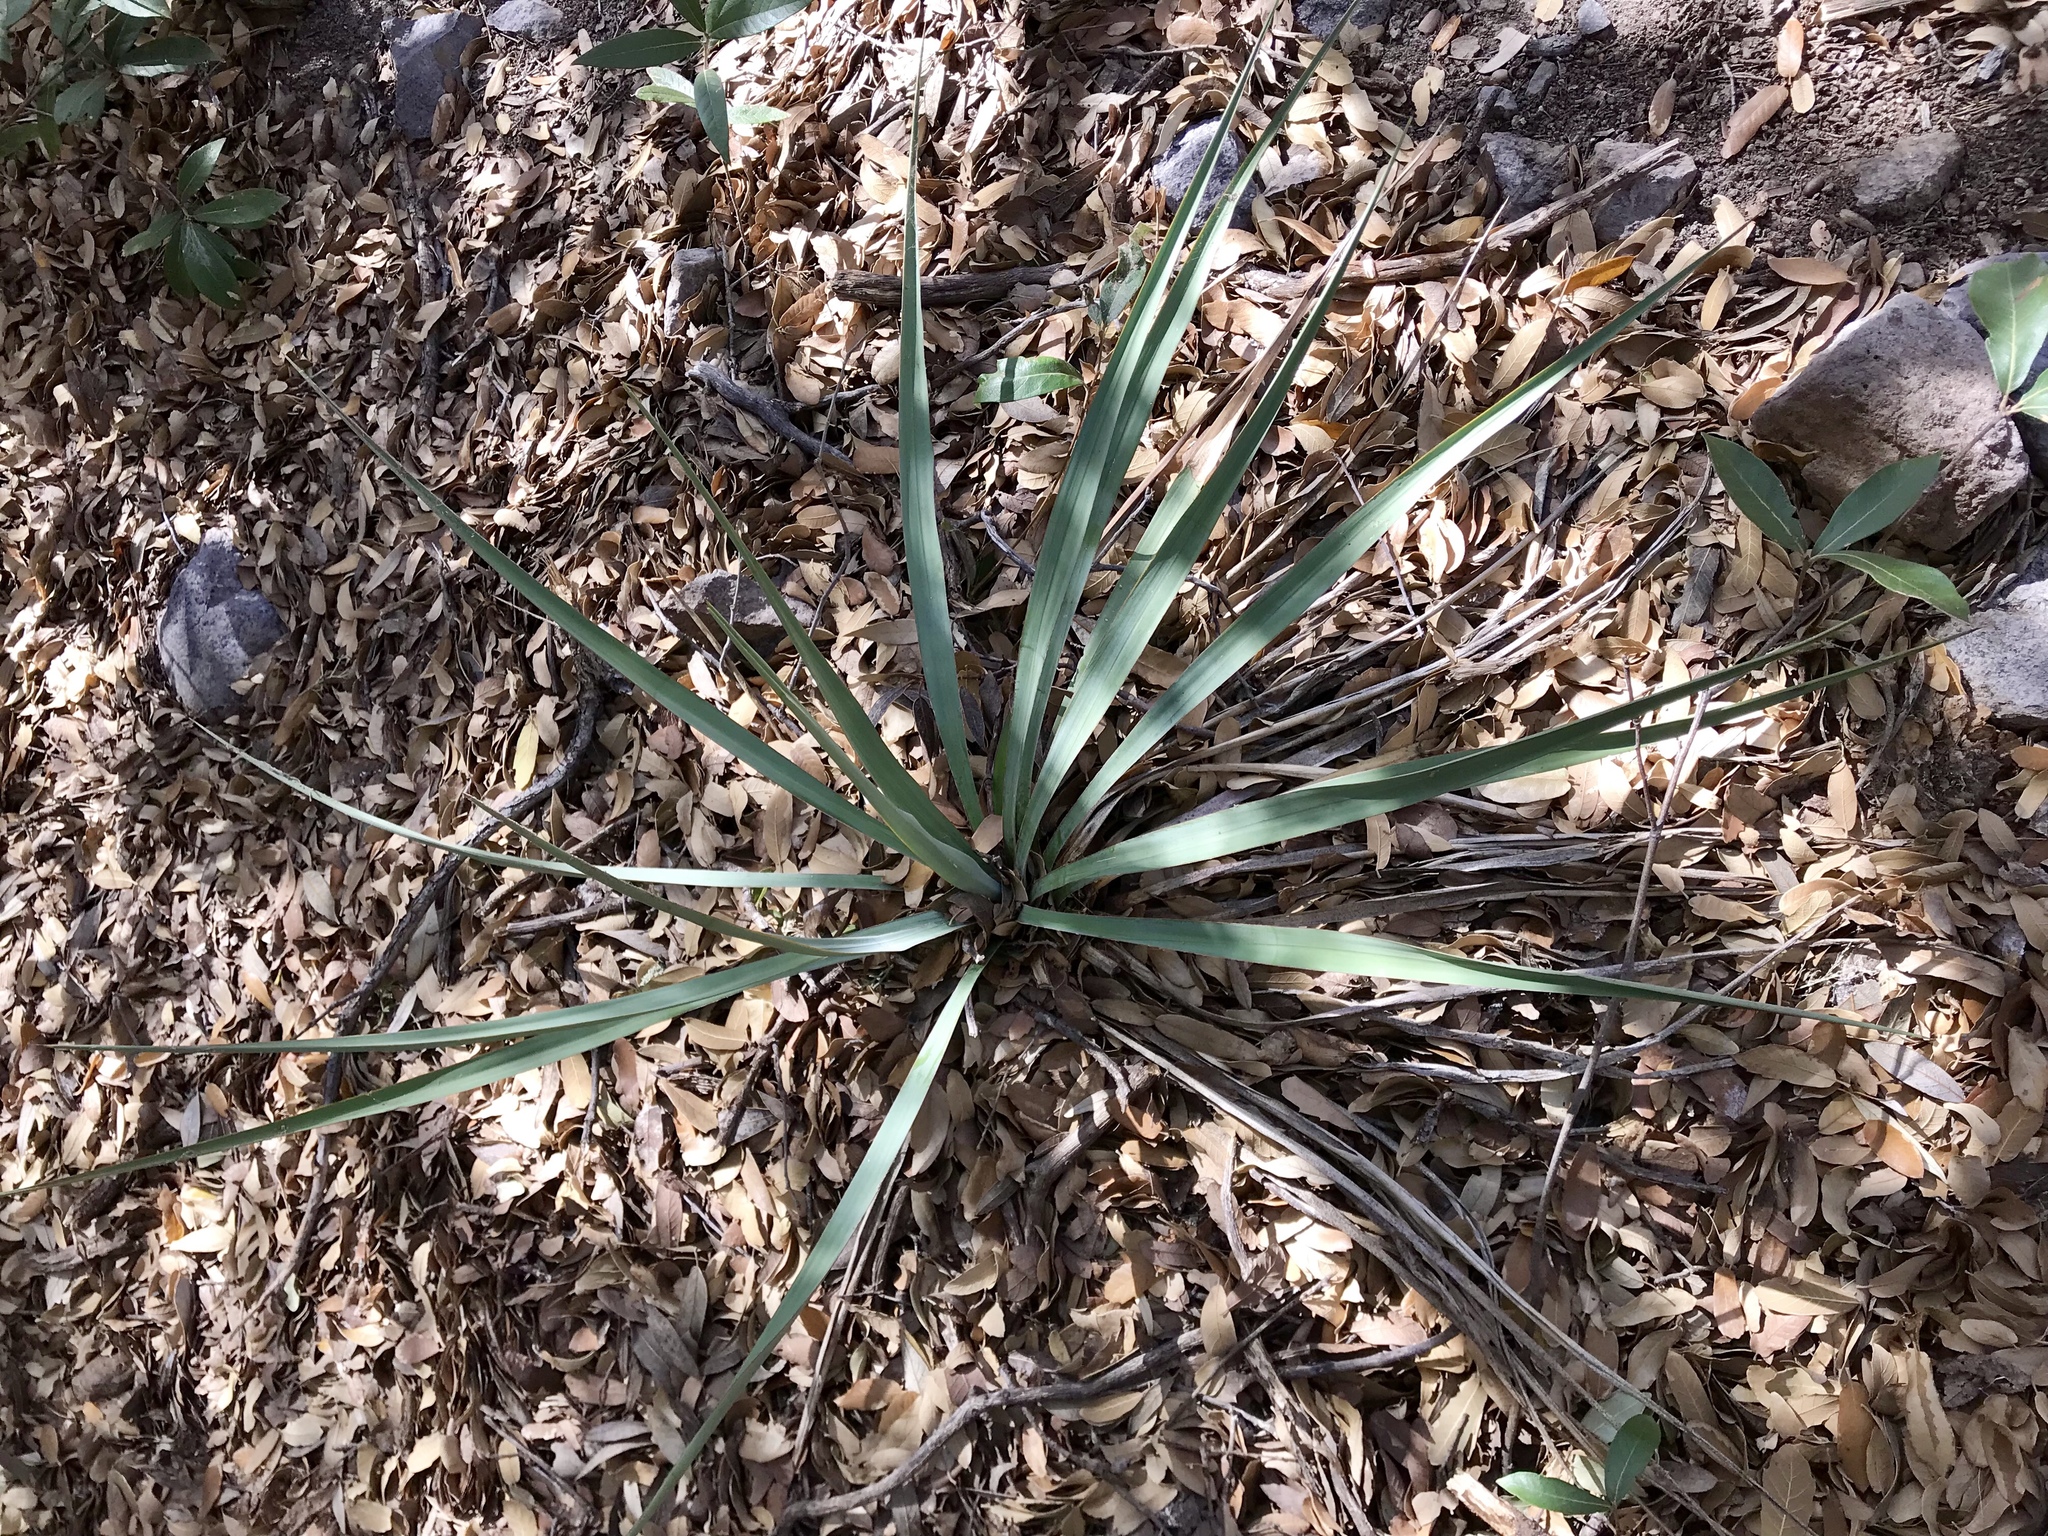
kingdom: Plantae
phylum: Tracheophyta
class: Liliopsida
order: Asparagales
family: Asparagaceae
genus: Yucca
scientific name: Yucca madrensis
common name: Hoary yucca
